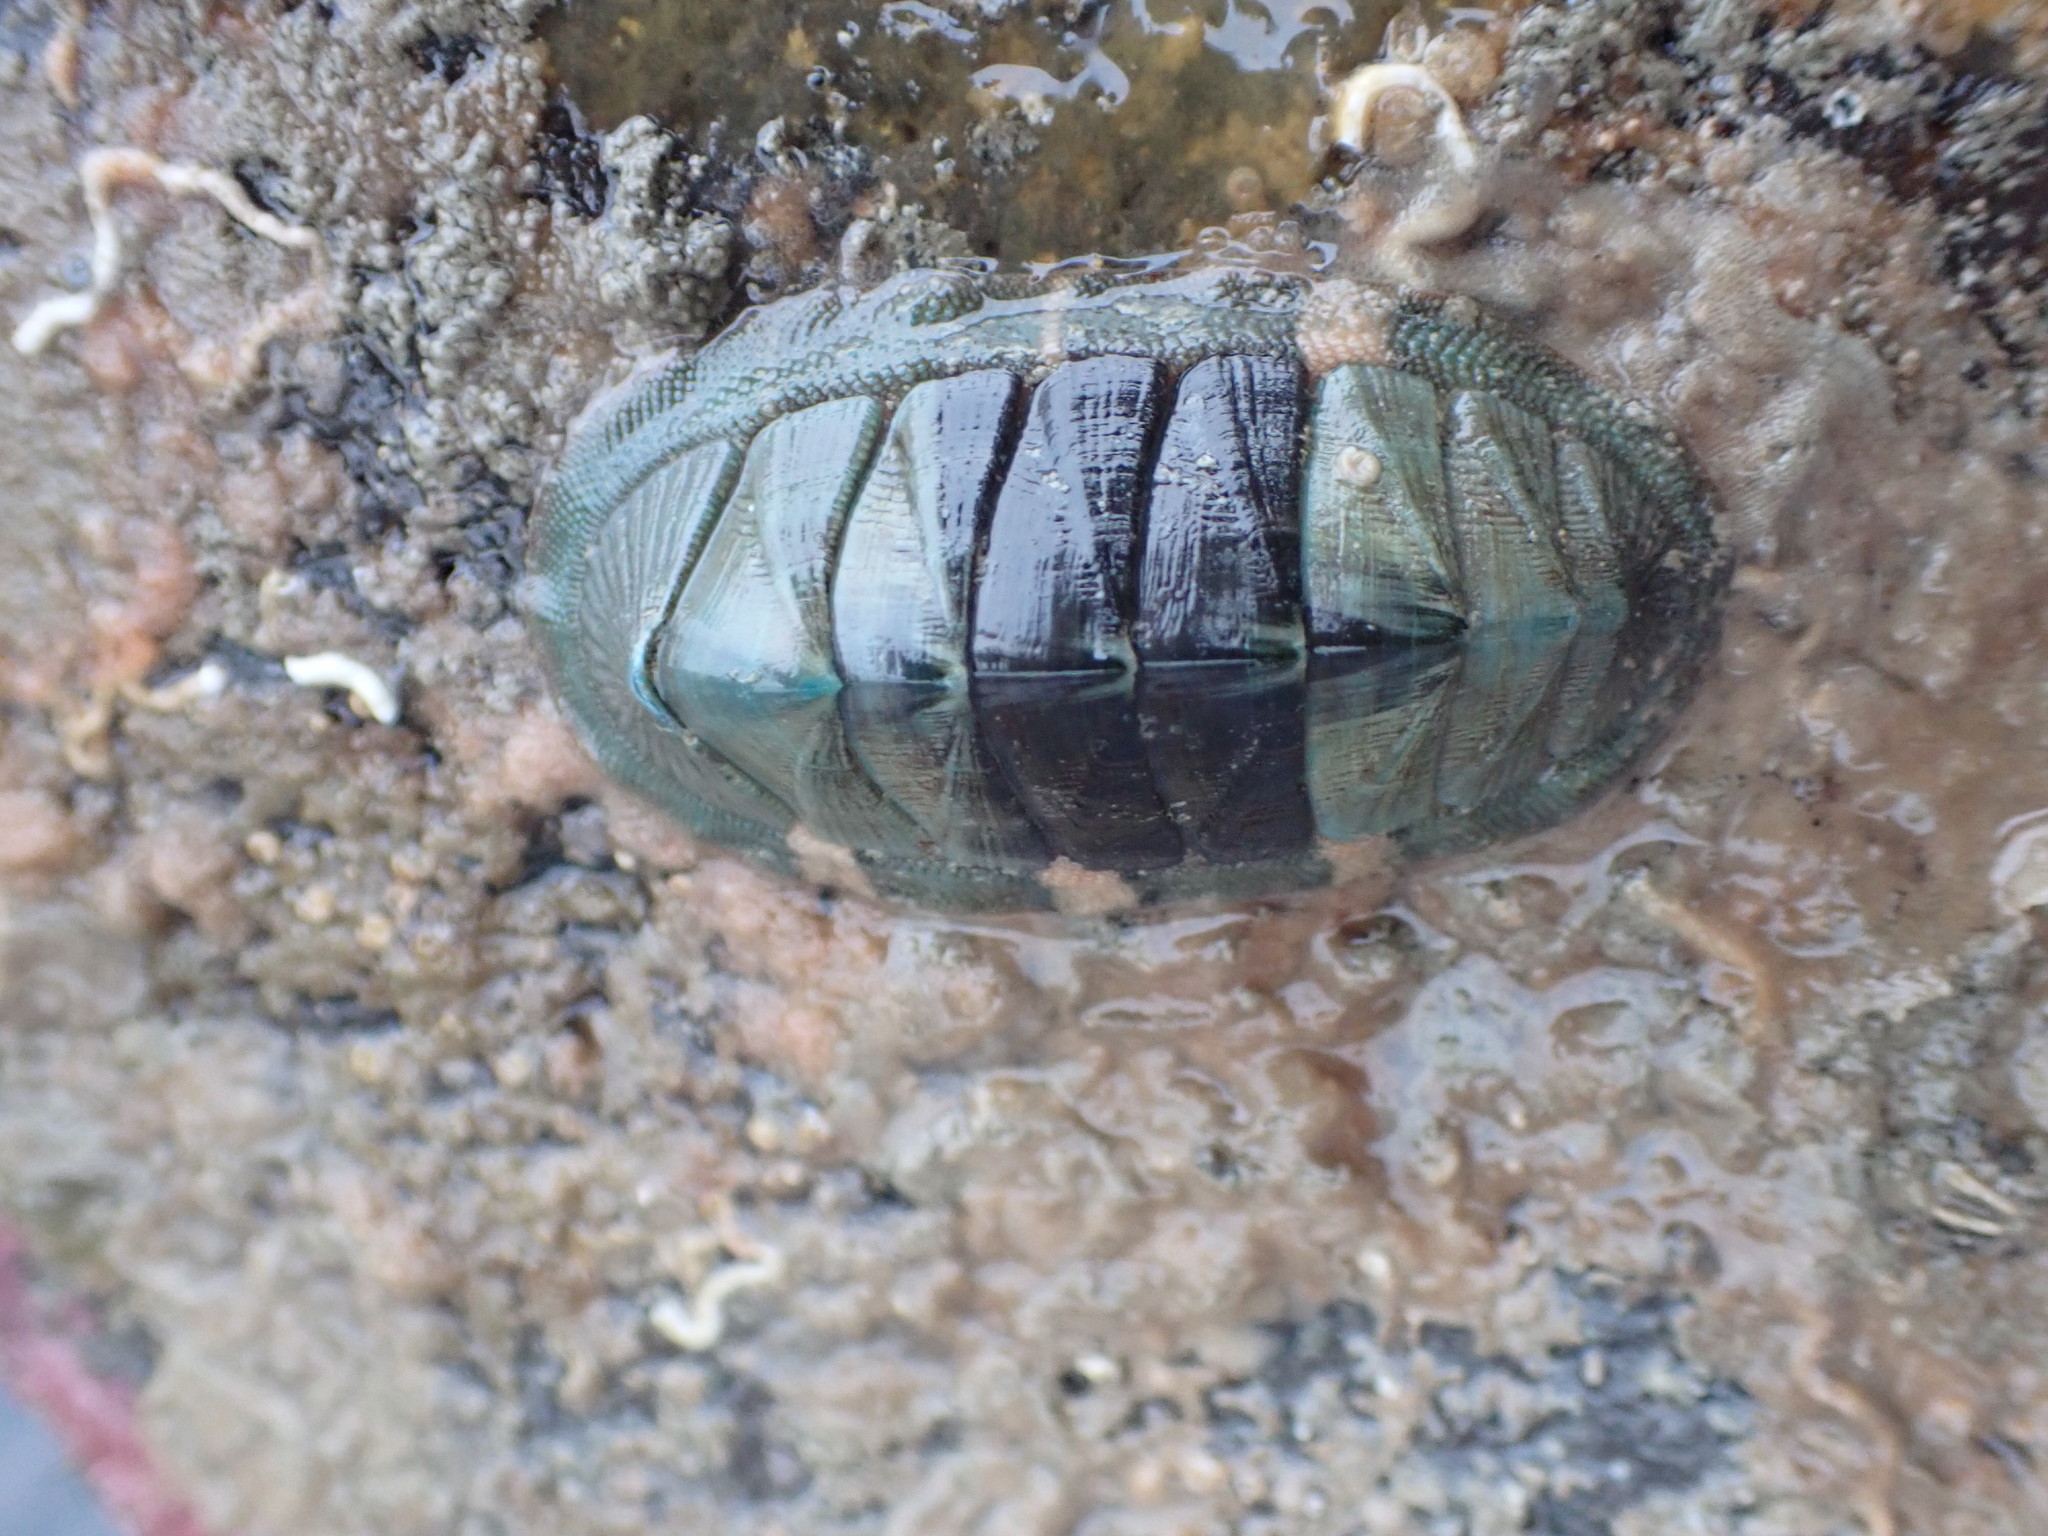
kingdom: Animalia
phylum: Mollusca
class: Polyplacophora
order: Chitonida
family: Chitonidae
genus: Rhyssoplax
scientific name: Rhyssoplax aerea
